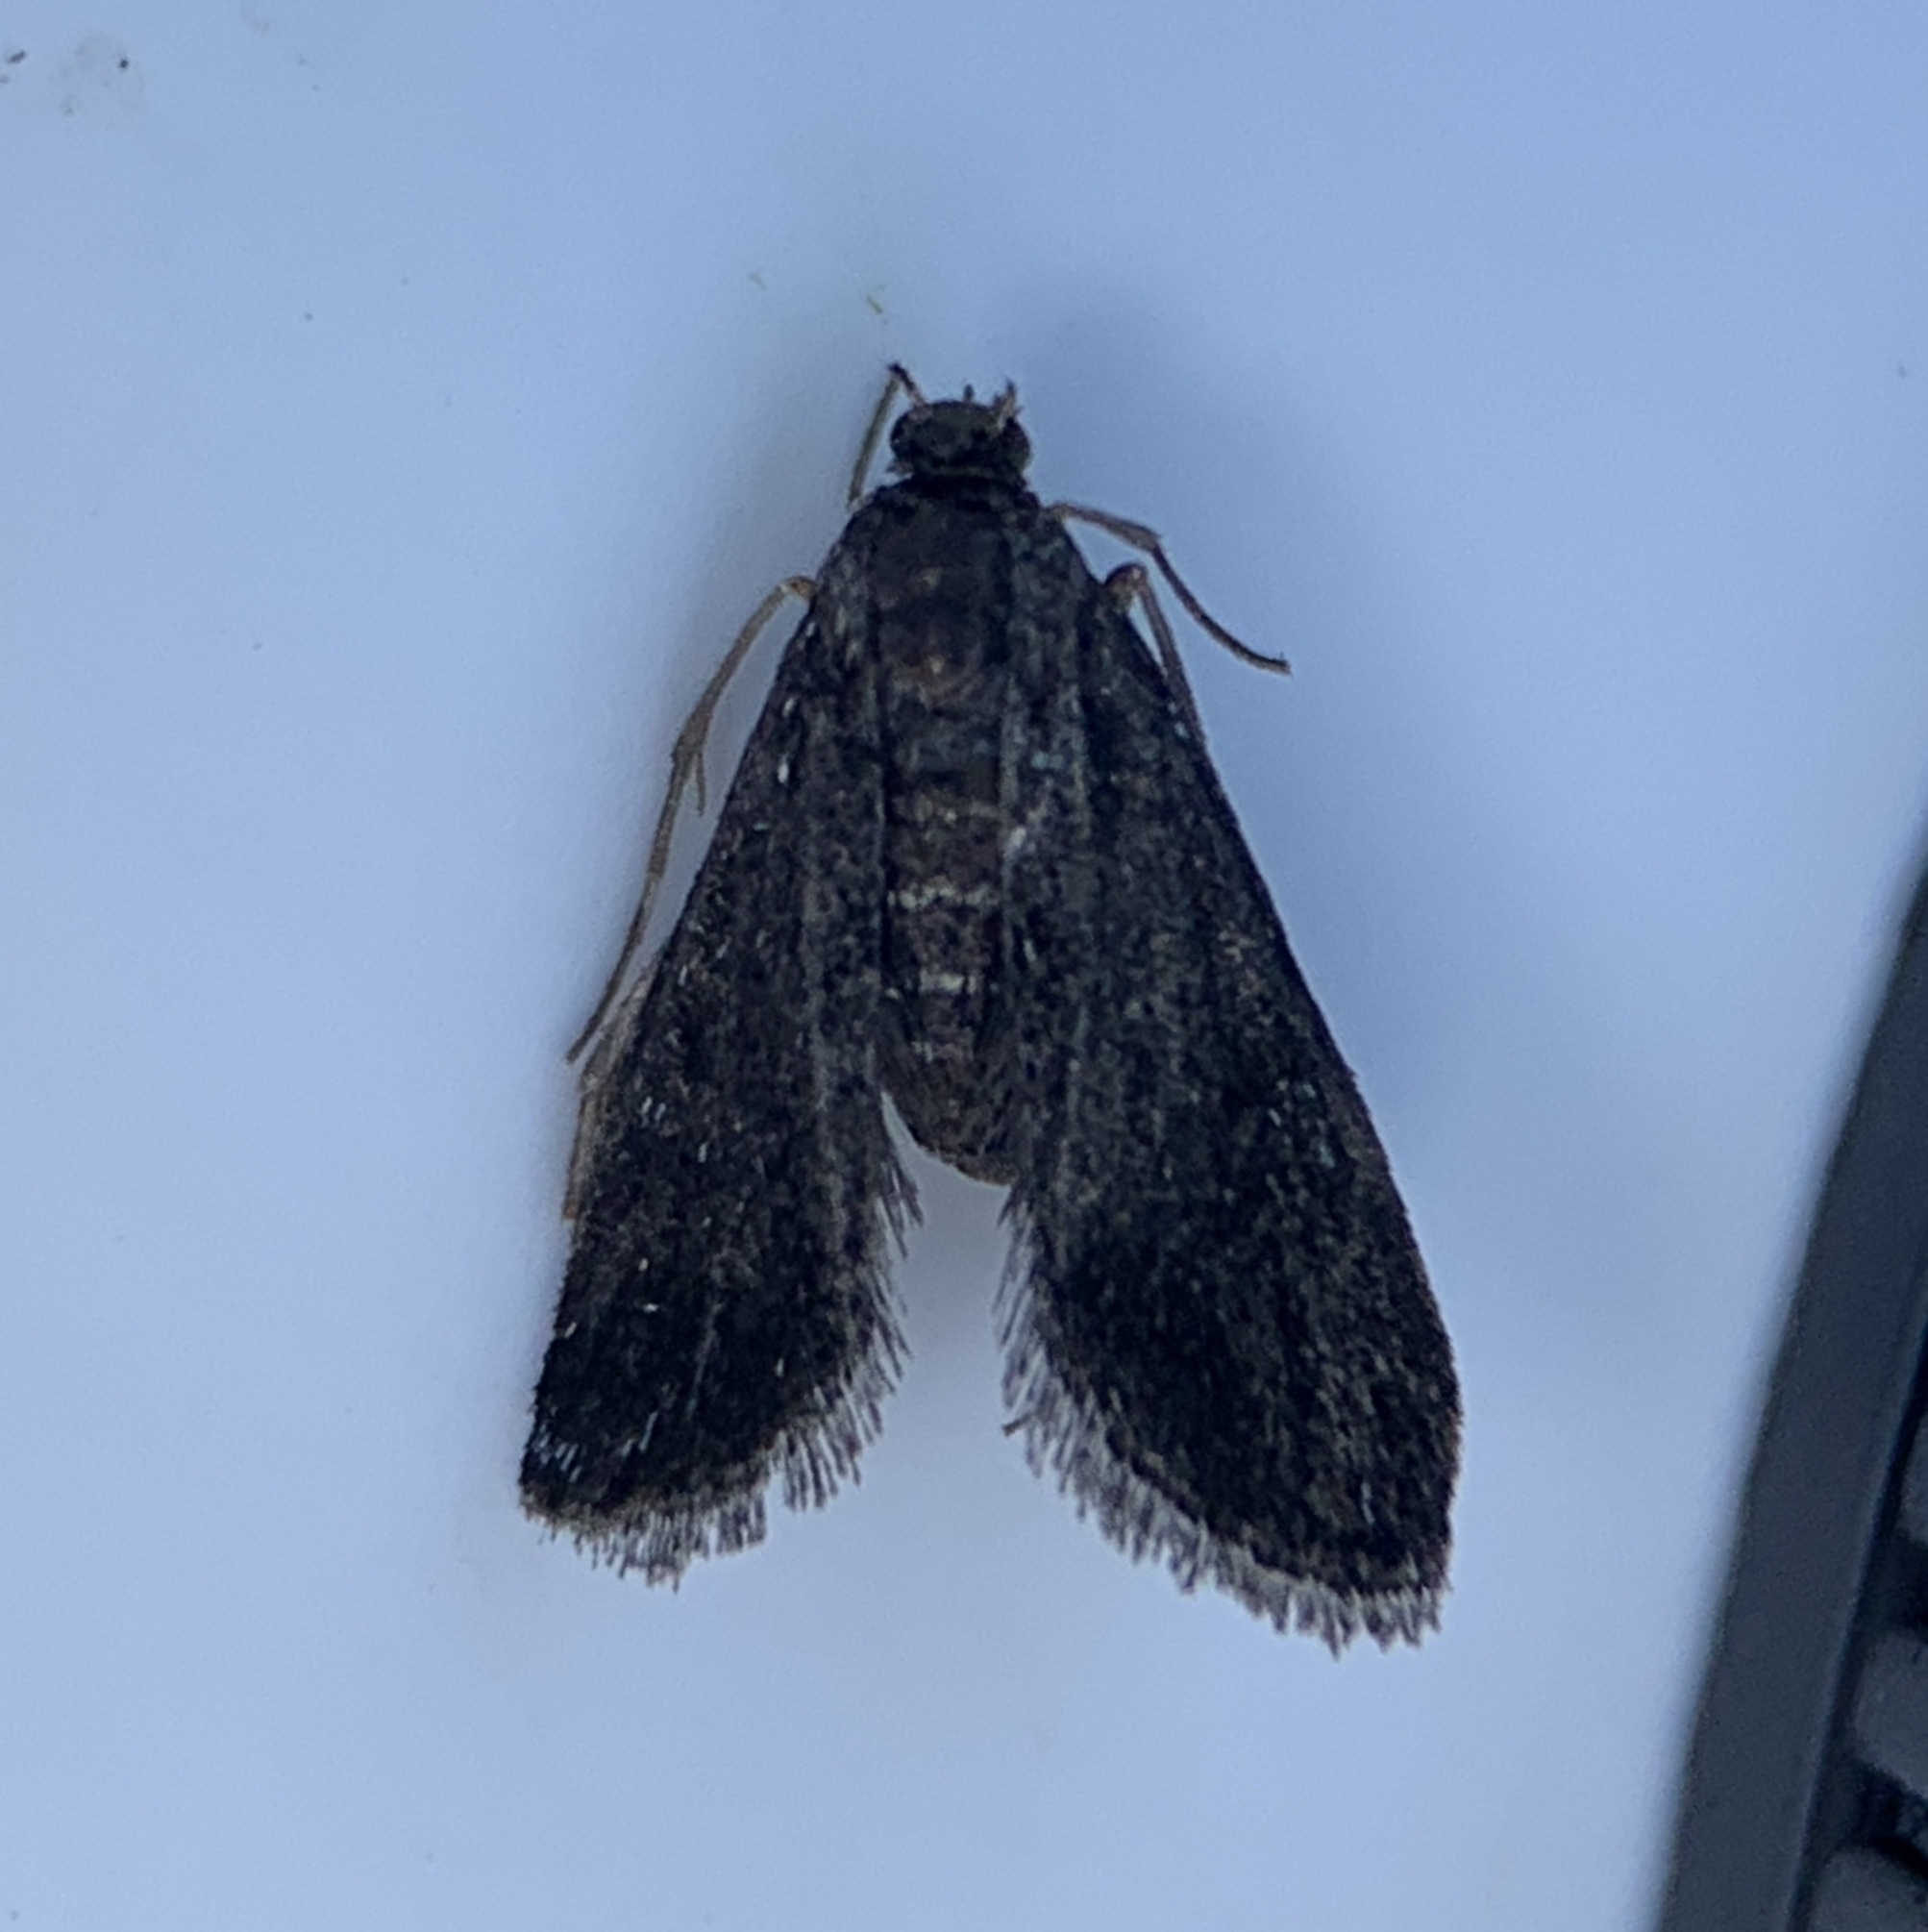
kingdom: Animalia
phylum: Arthropoda
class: Insecta
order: Lepidoptera
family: Crambidae
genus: Elophila
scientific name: Elophila tinealis
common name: Black duckweed moth
